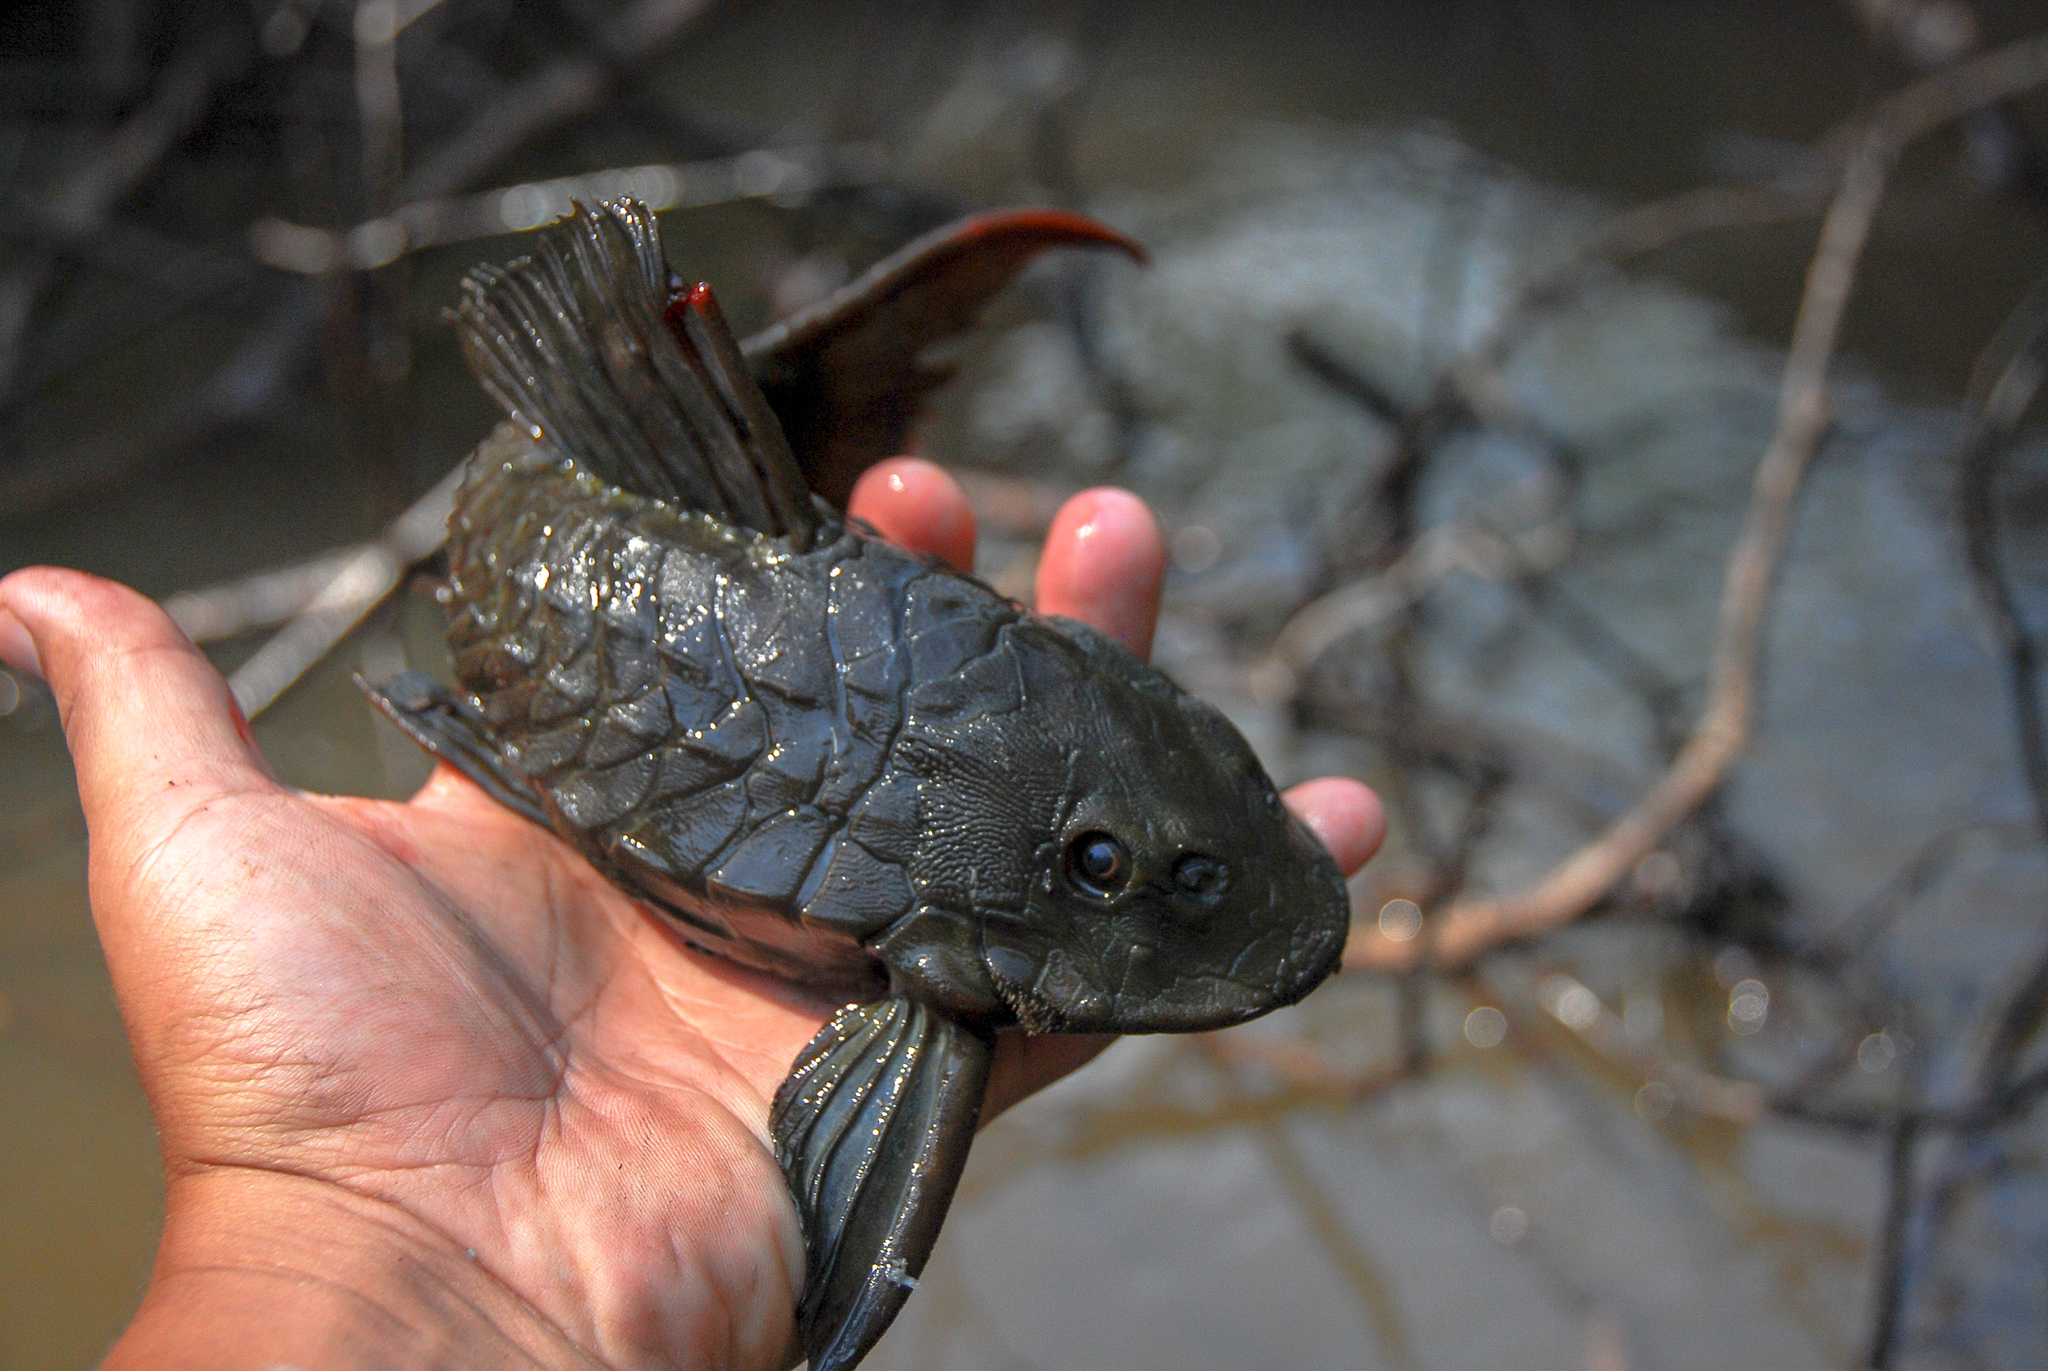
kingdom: Animalia
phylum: Chordata
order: Siluriformes
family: Loricariidae
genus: Pseudorinelepis
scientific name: Pseudorinelepis genibarbis
